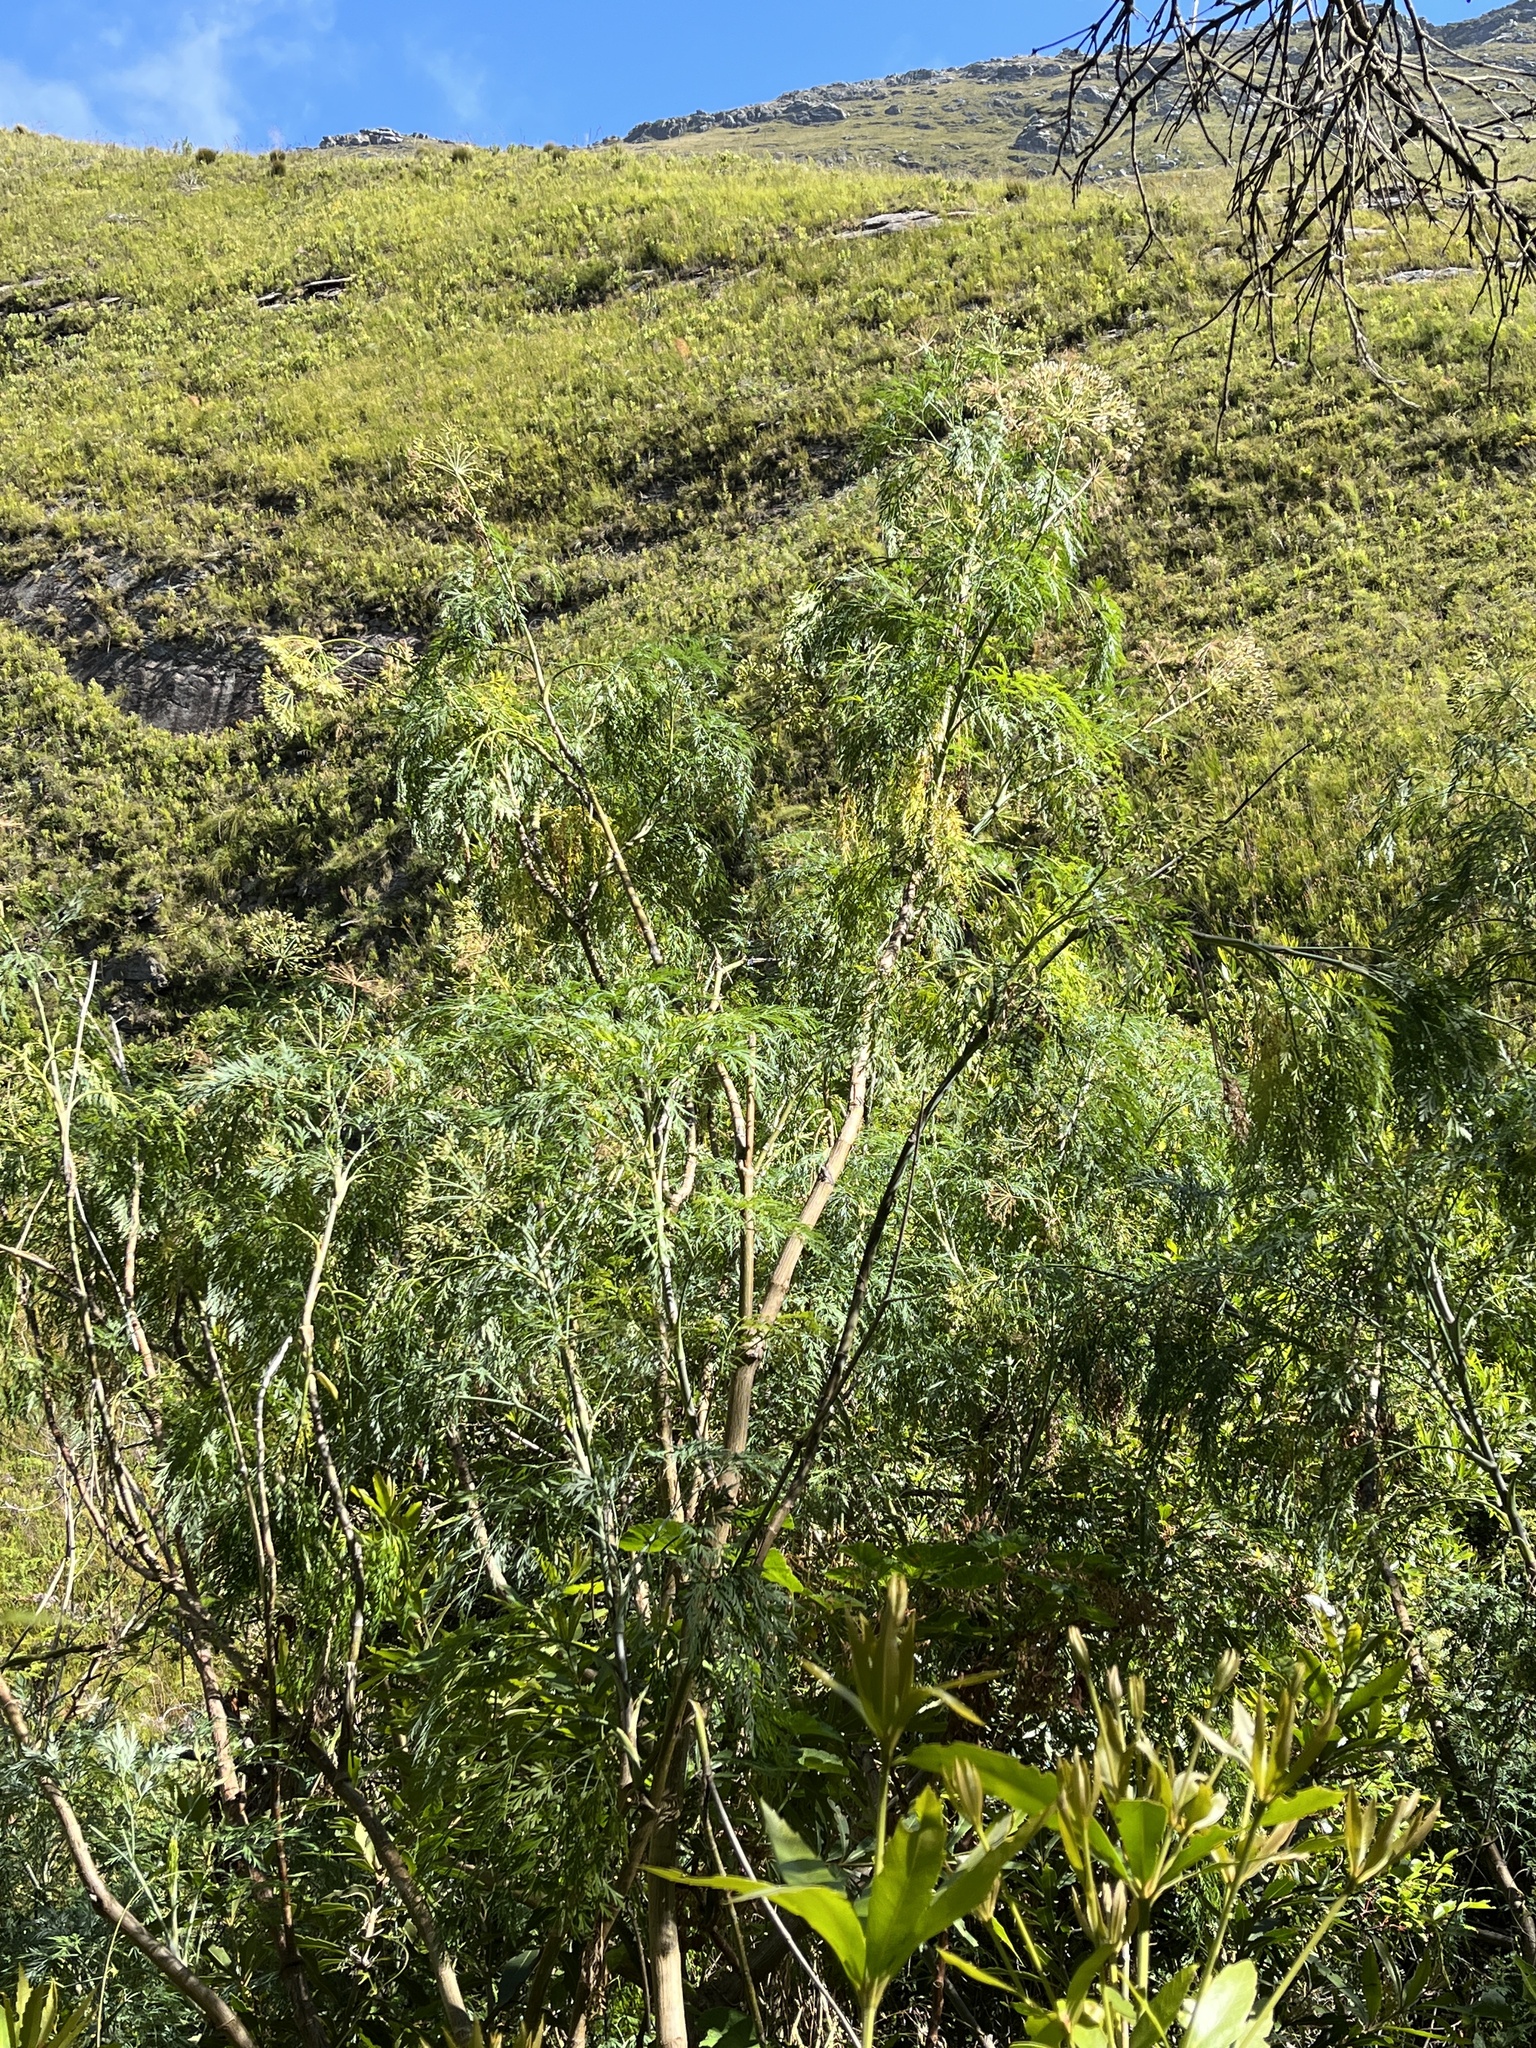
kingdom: Plantae
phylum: Tracheophyta
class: Magnoliopsida
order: Apiales
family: Apiaceae
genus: Notobubon
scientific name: Notobubon gummiferum
